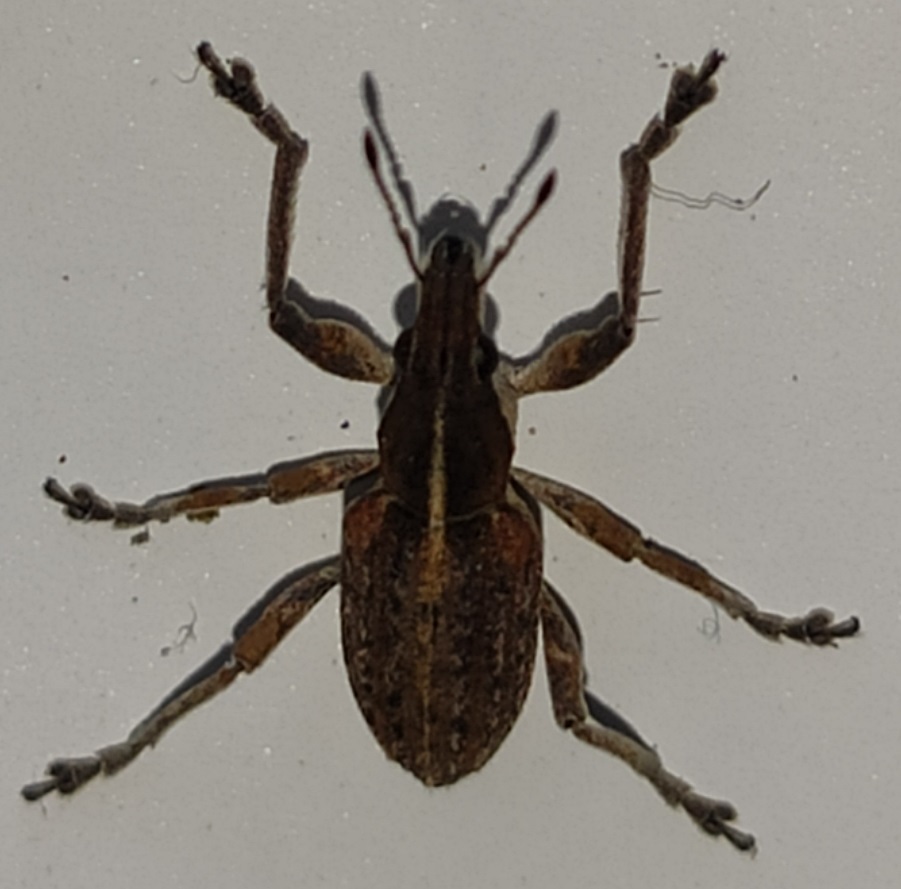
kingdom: Animalia
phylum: Arthropoda
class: Insecta
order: Coleoptera
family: Curculionidae
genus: Charagmus
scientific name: Charagmus gressorius
